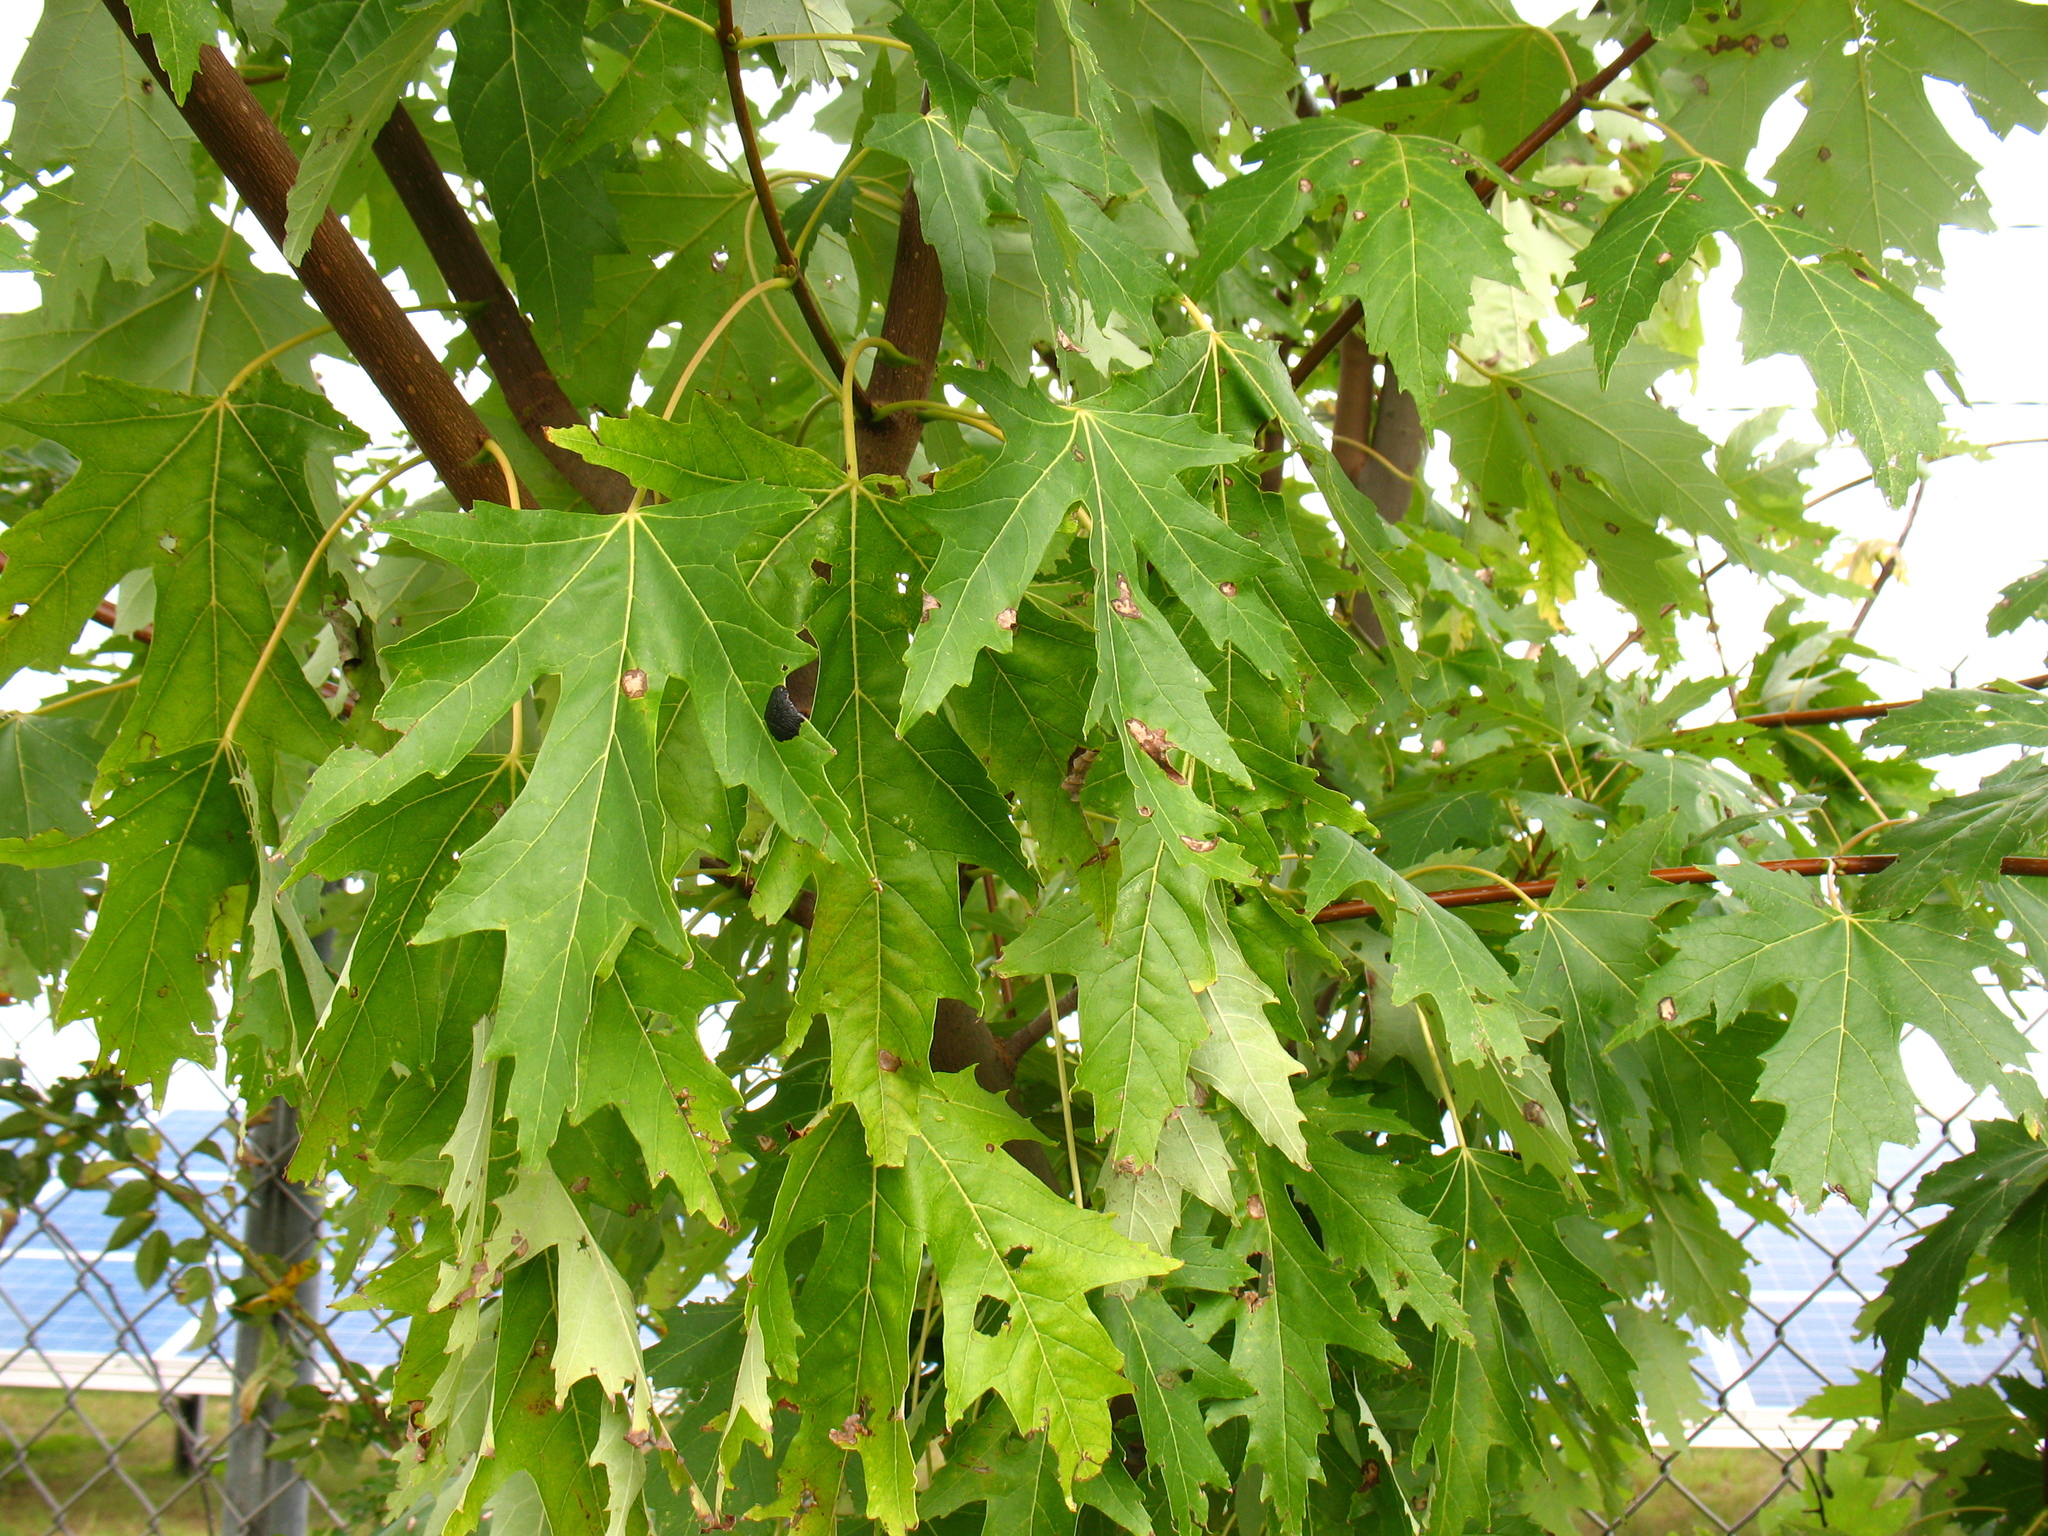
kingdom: Plantae
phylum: Tracheophyta
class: Magnoliopsida
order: Sapindales
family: Sapindaceae
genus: Acer
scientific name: Acer saccharinum
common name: Silver maple
